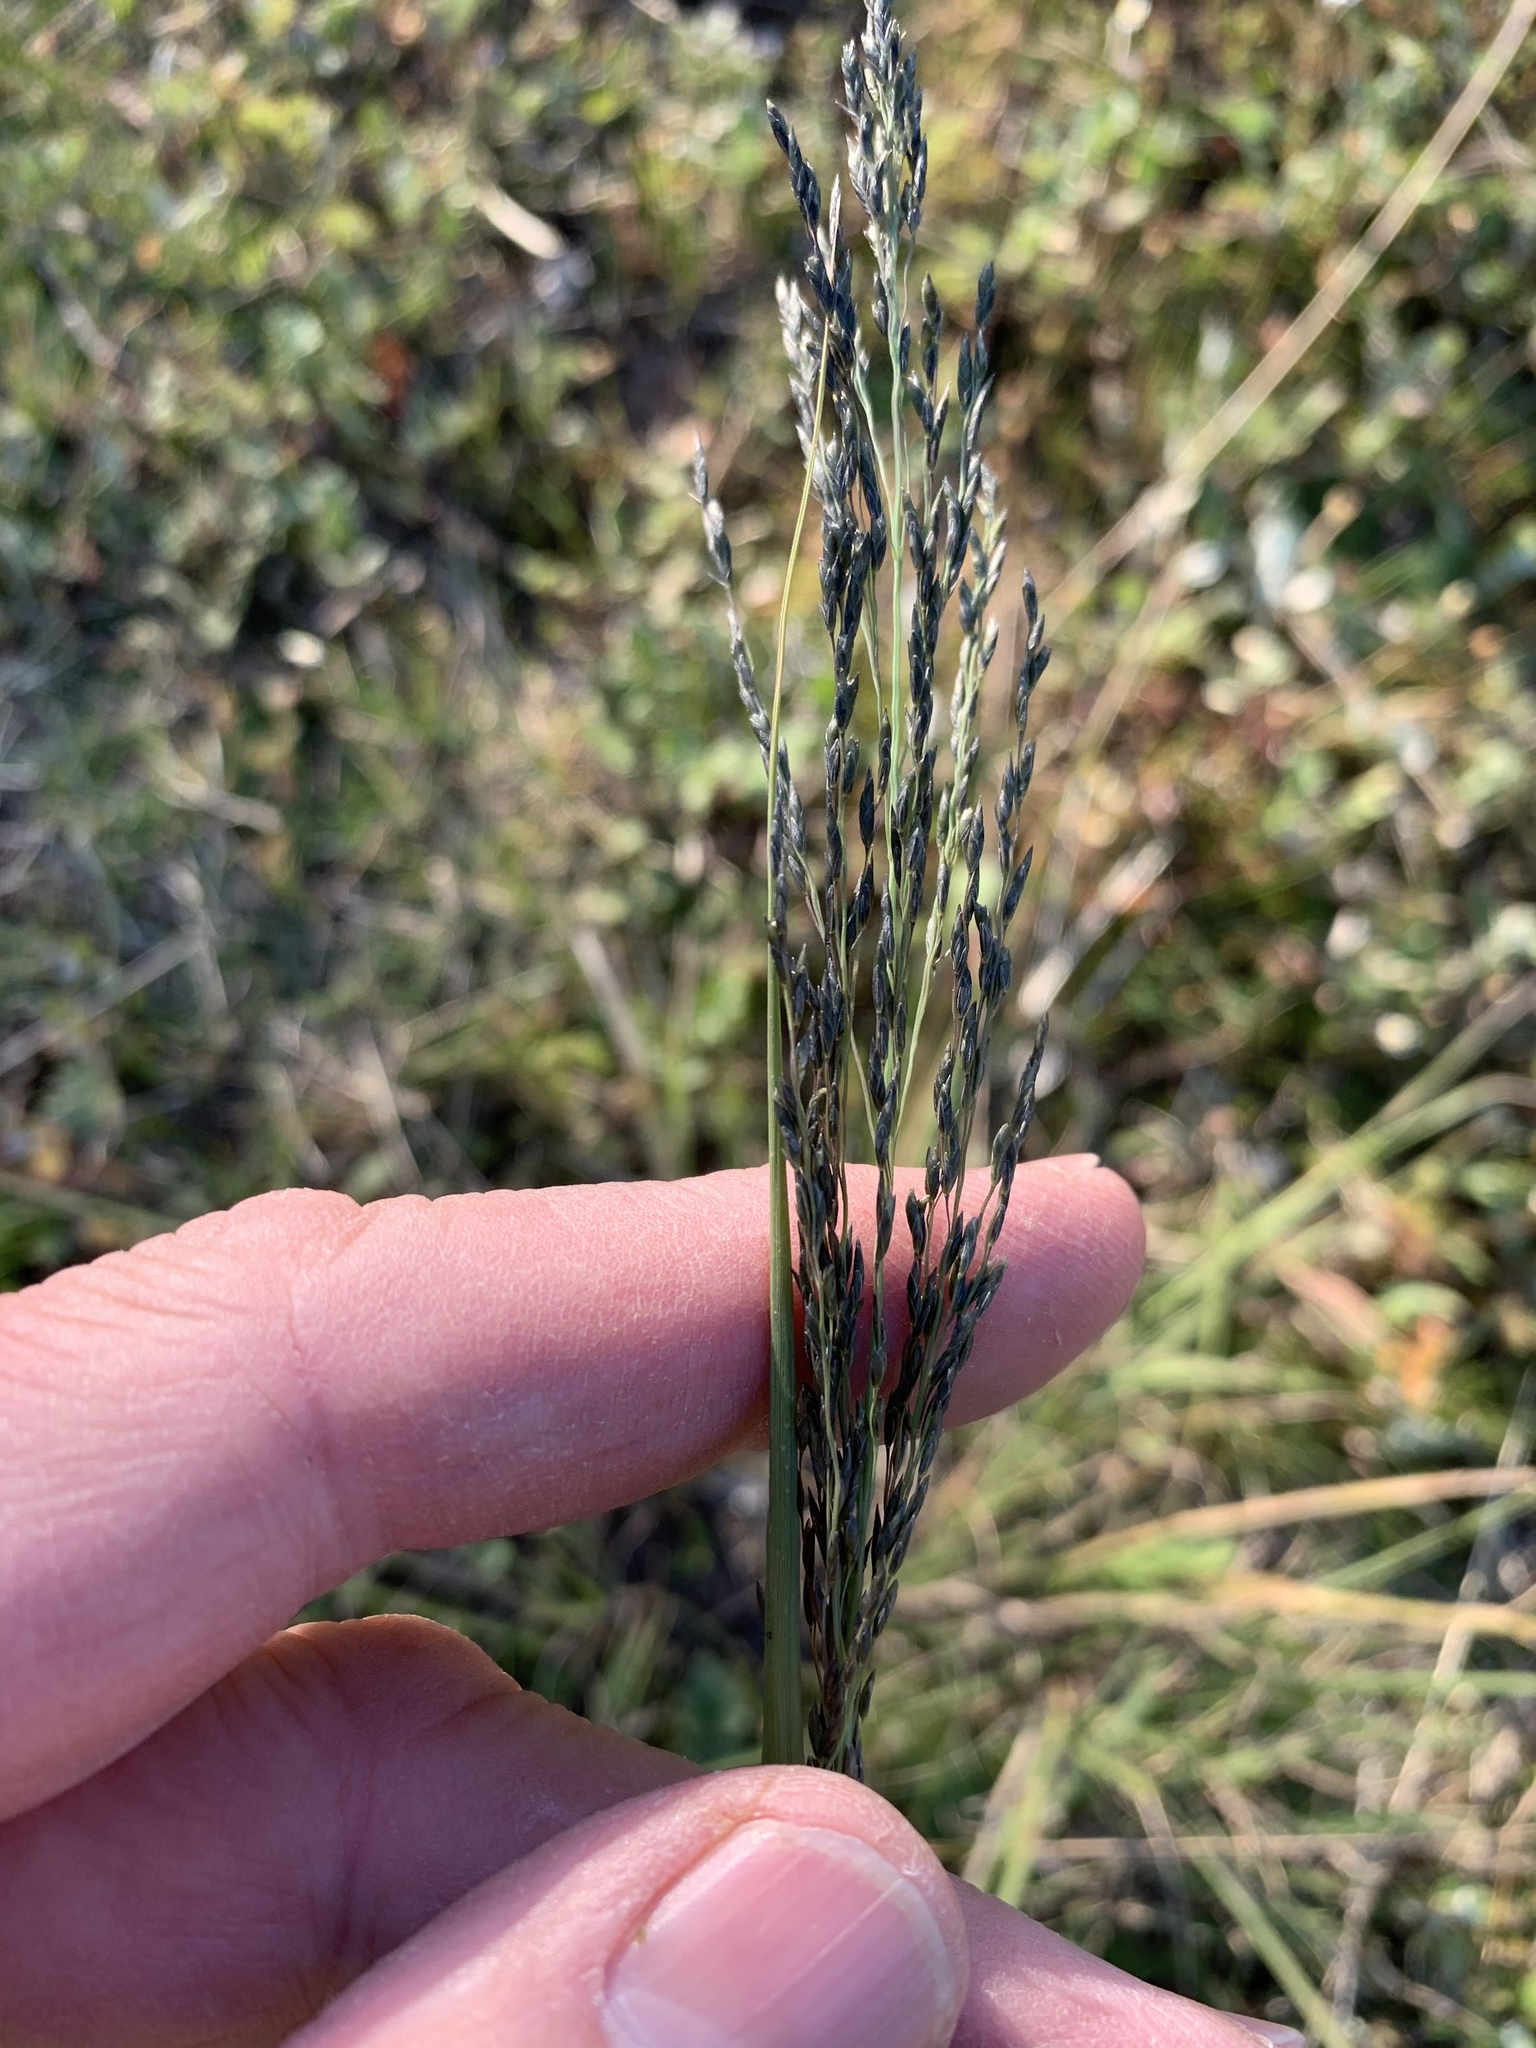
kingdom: Plantae
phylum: Tracheophyta
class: Liliopsida
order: Poales
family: Poaceae
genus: Eragrostis
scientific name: Eragrostis curvula
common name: African love-grass
